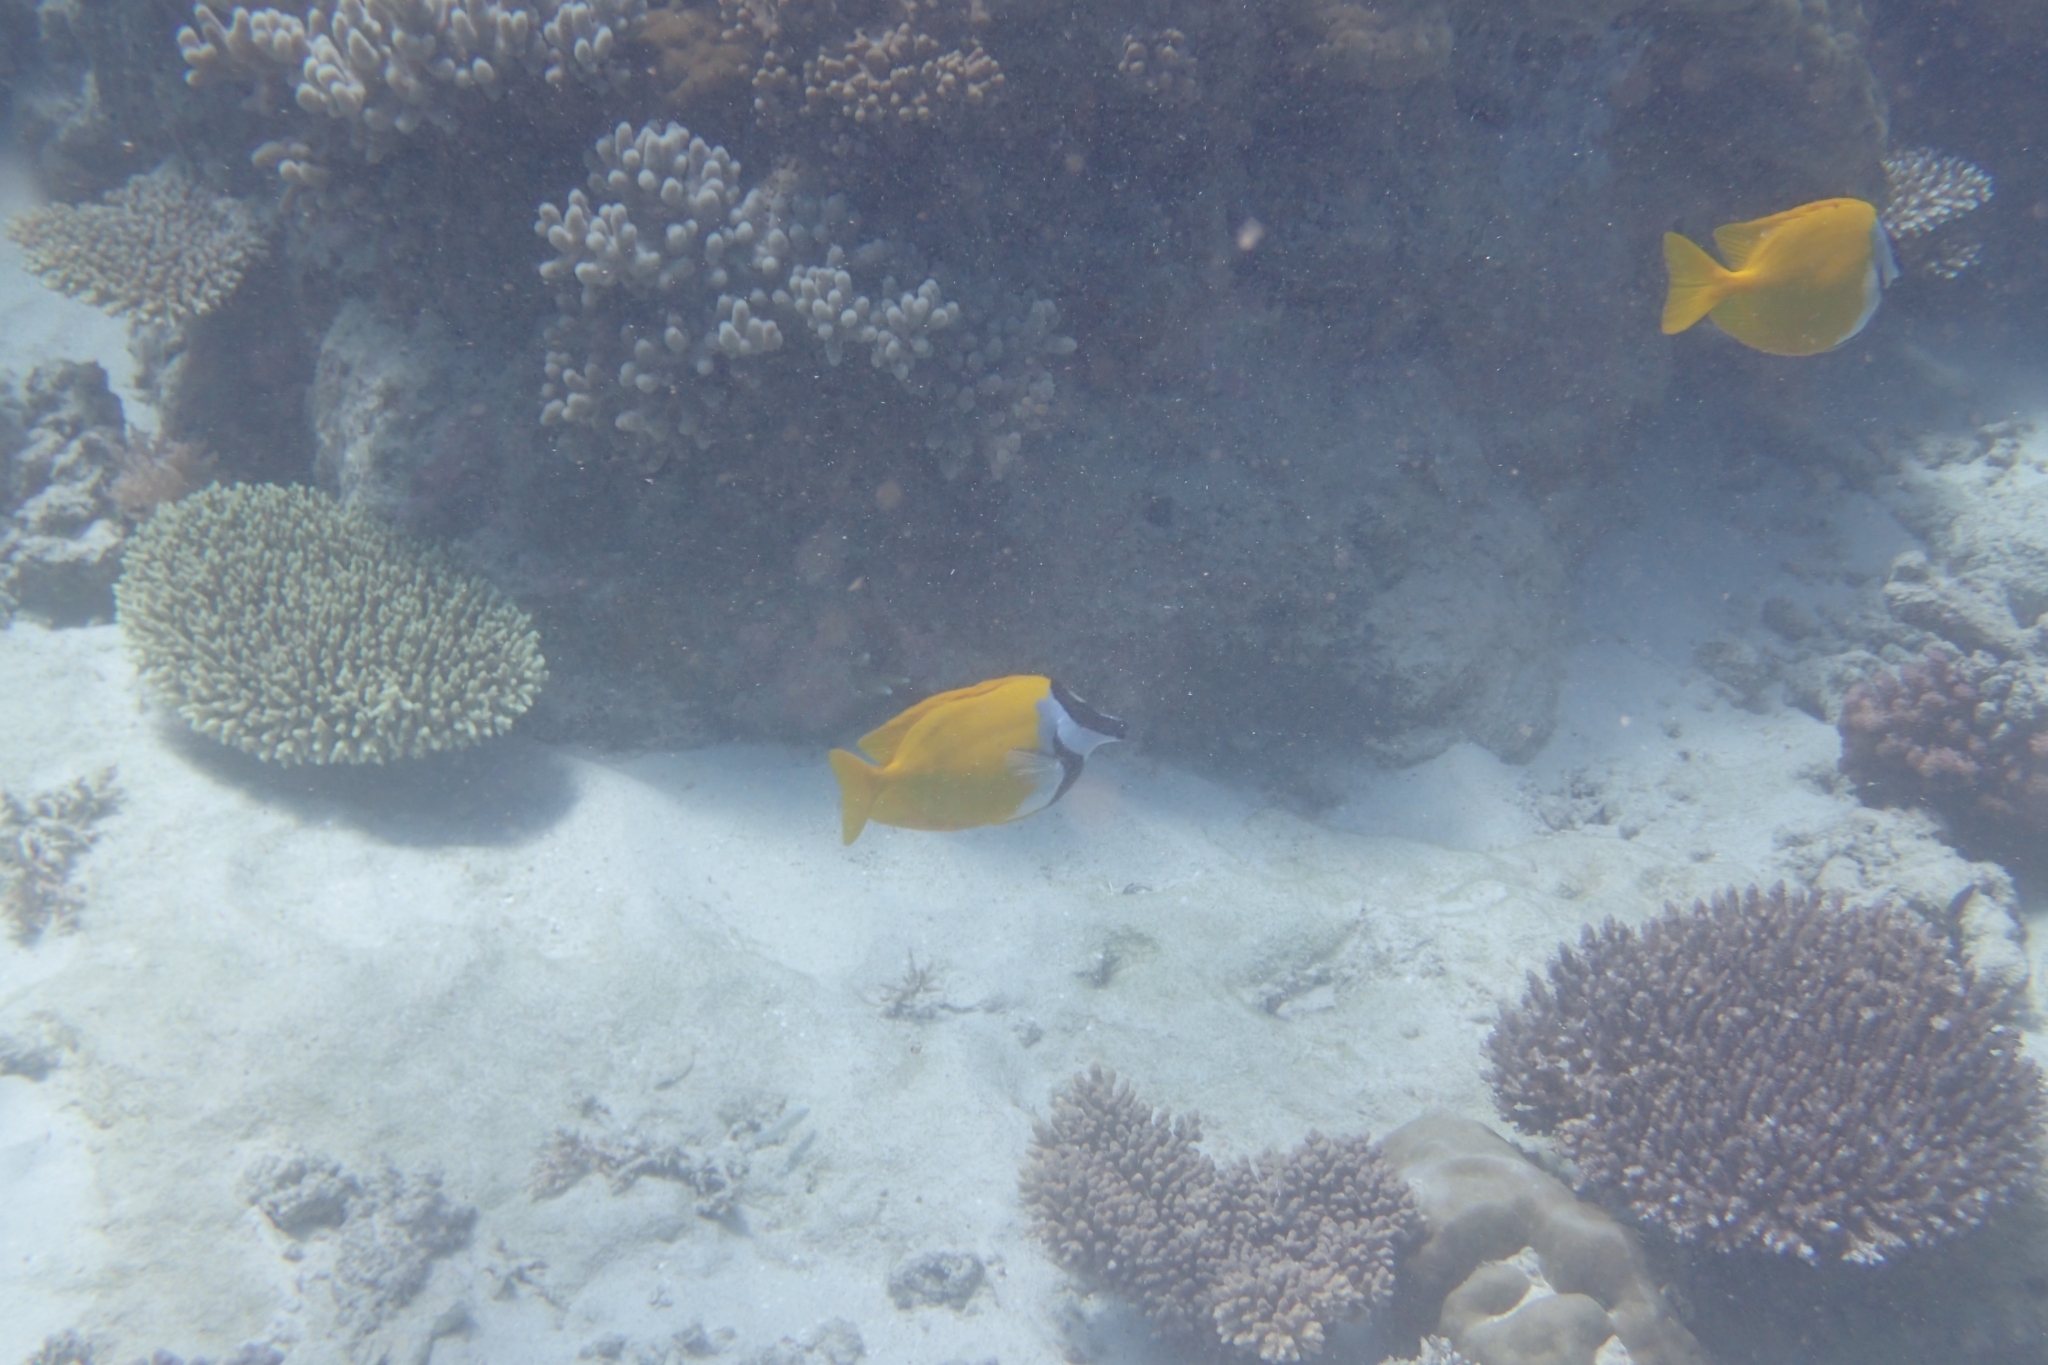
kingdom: Animalia
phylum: Chordata
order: Perciformes
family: Siganidae
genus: Siganus
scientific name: Siganus vulpinus
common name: Foxface
